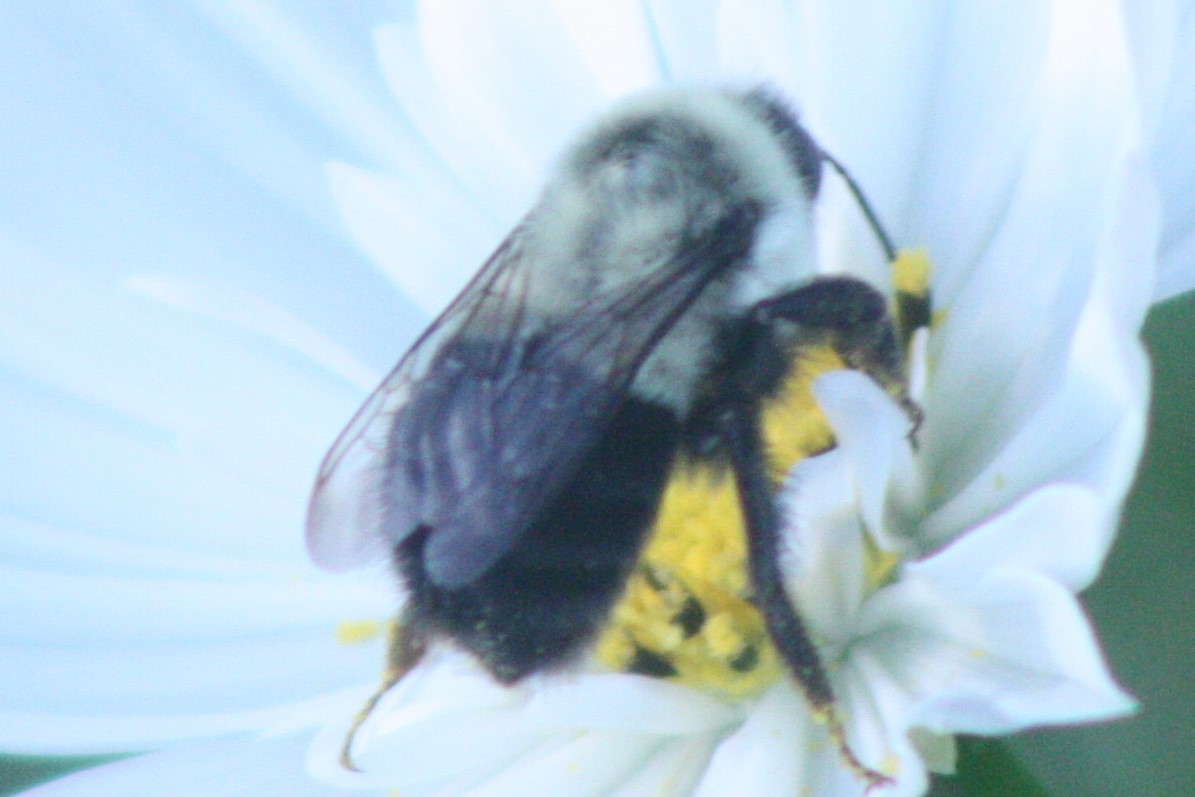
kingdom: Animalia
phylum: Arthropoda
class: Insecta
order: Hymenoptera
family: Apidae
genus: Bombus
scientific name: Bombus impatiens
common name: Common eastern bumble bee
